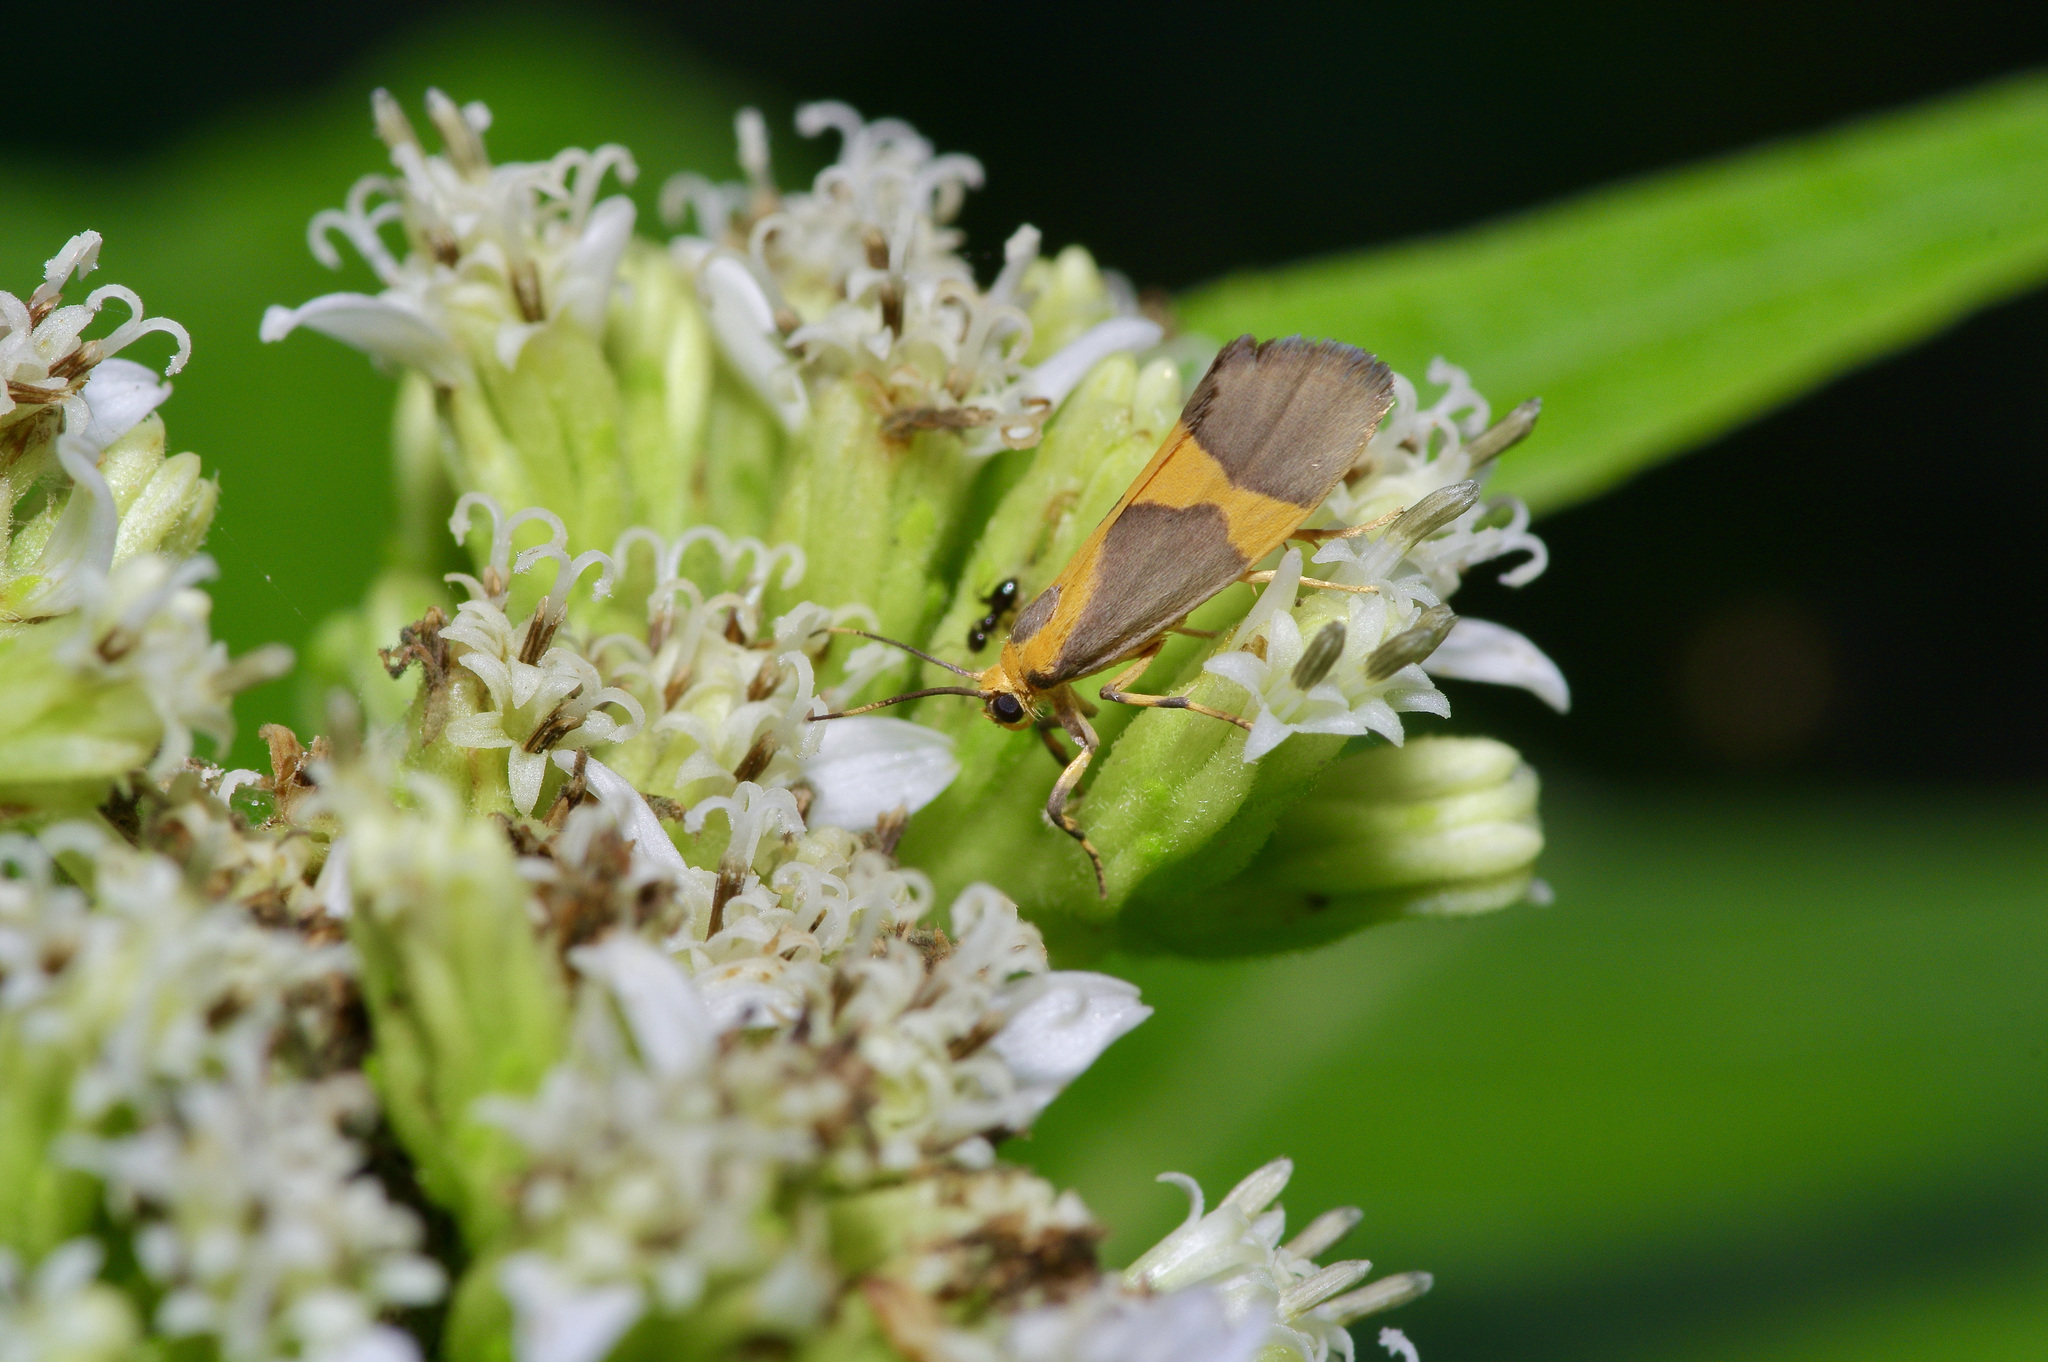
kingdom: Animalia
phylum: Arthropoda
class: Insecta
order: Lepidoptera
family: Erebidae
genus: Cisthene
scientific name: Cisthene unifascia
